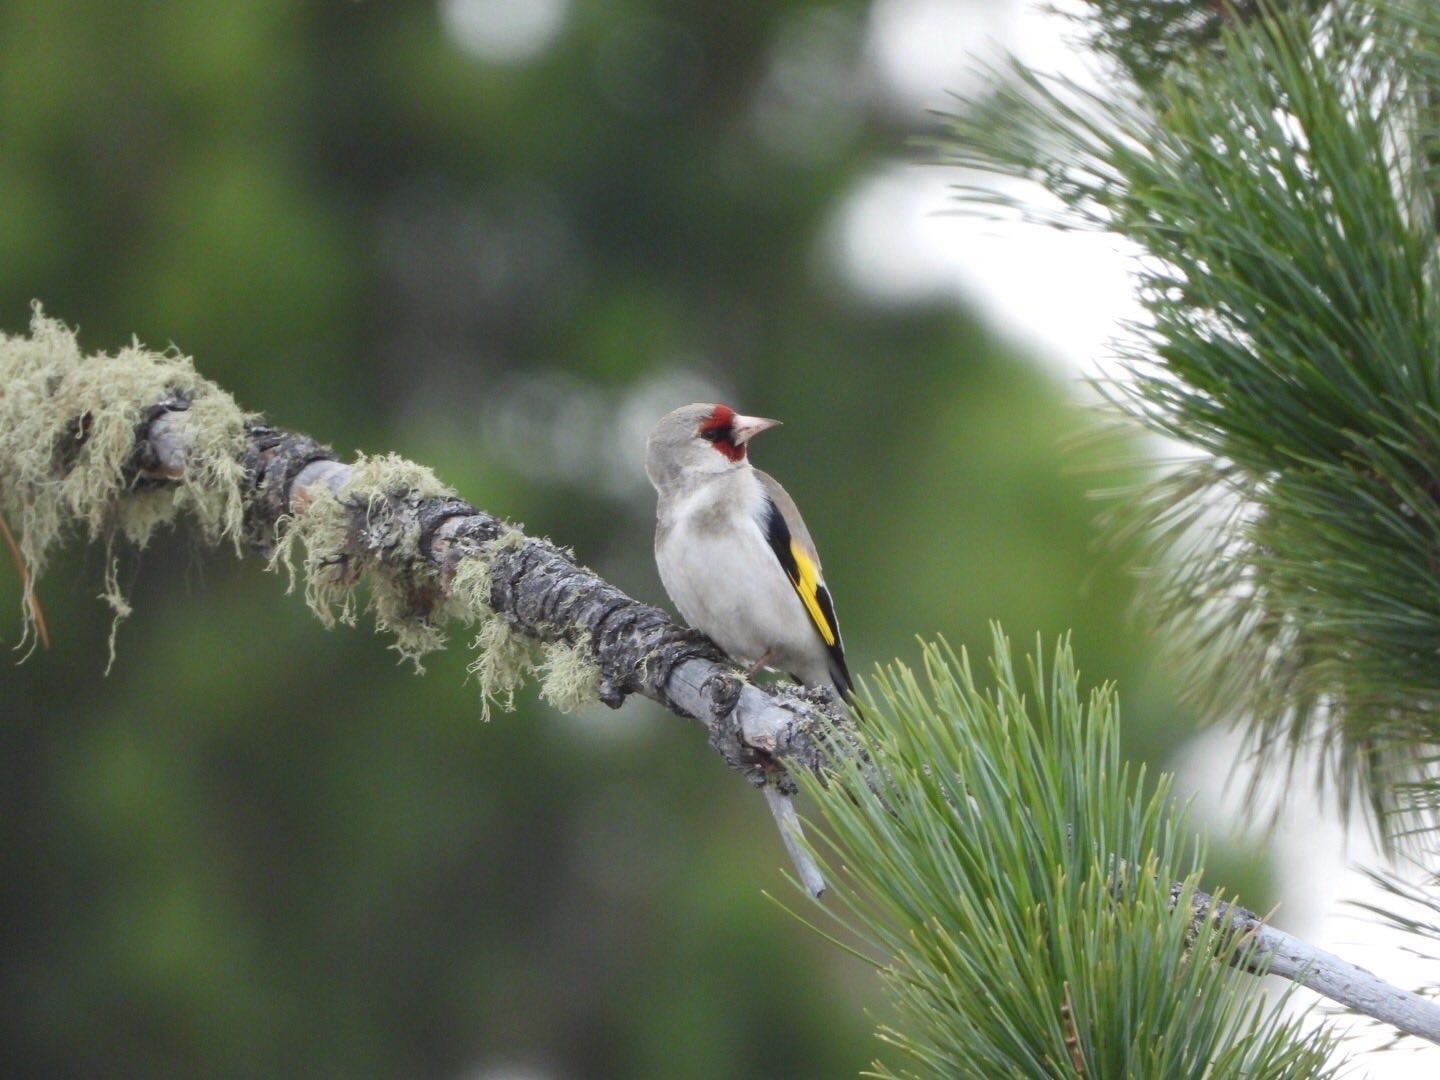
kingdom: Animalia
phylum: Chordata
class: Aves
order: Passeriformes
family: Fringillidae
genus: Carduelis
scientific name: Carduelis carduelis
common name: European goldfinch
